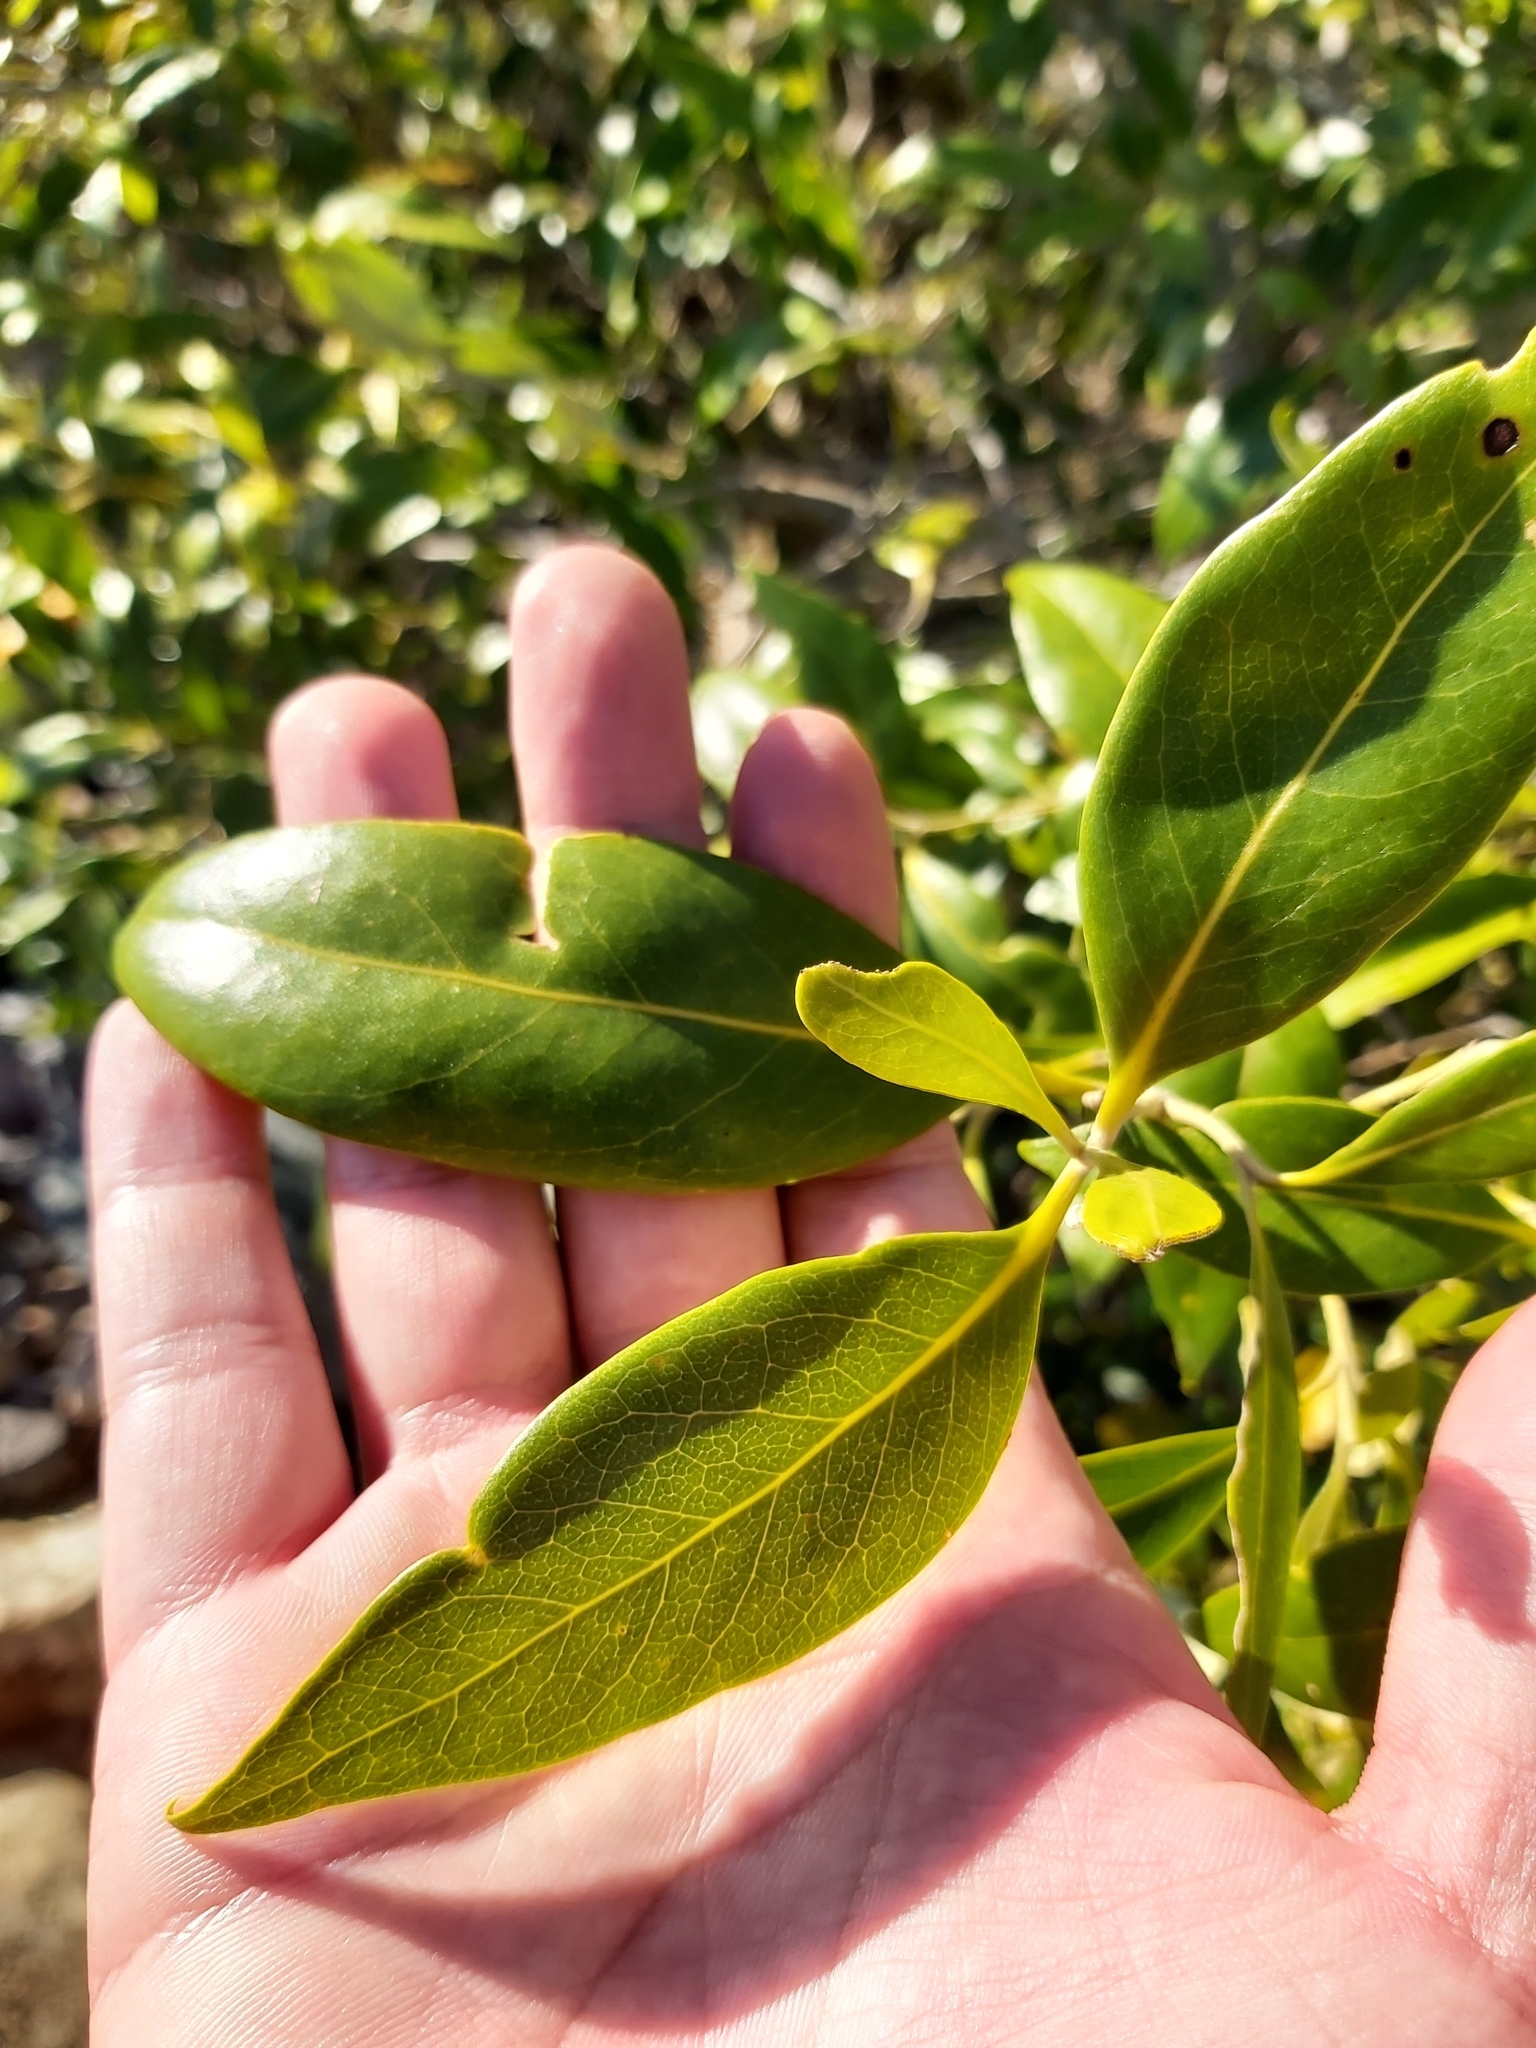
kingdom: Plantae
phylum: Tracheophyta
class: Magnoliopsida
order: Lamiales
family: Acanthaceae
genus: Avicennia
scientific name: Avicennia marina
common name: Gray mangrove
